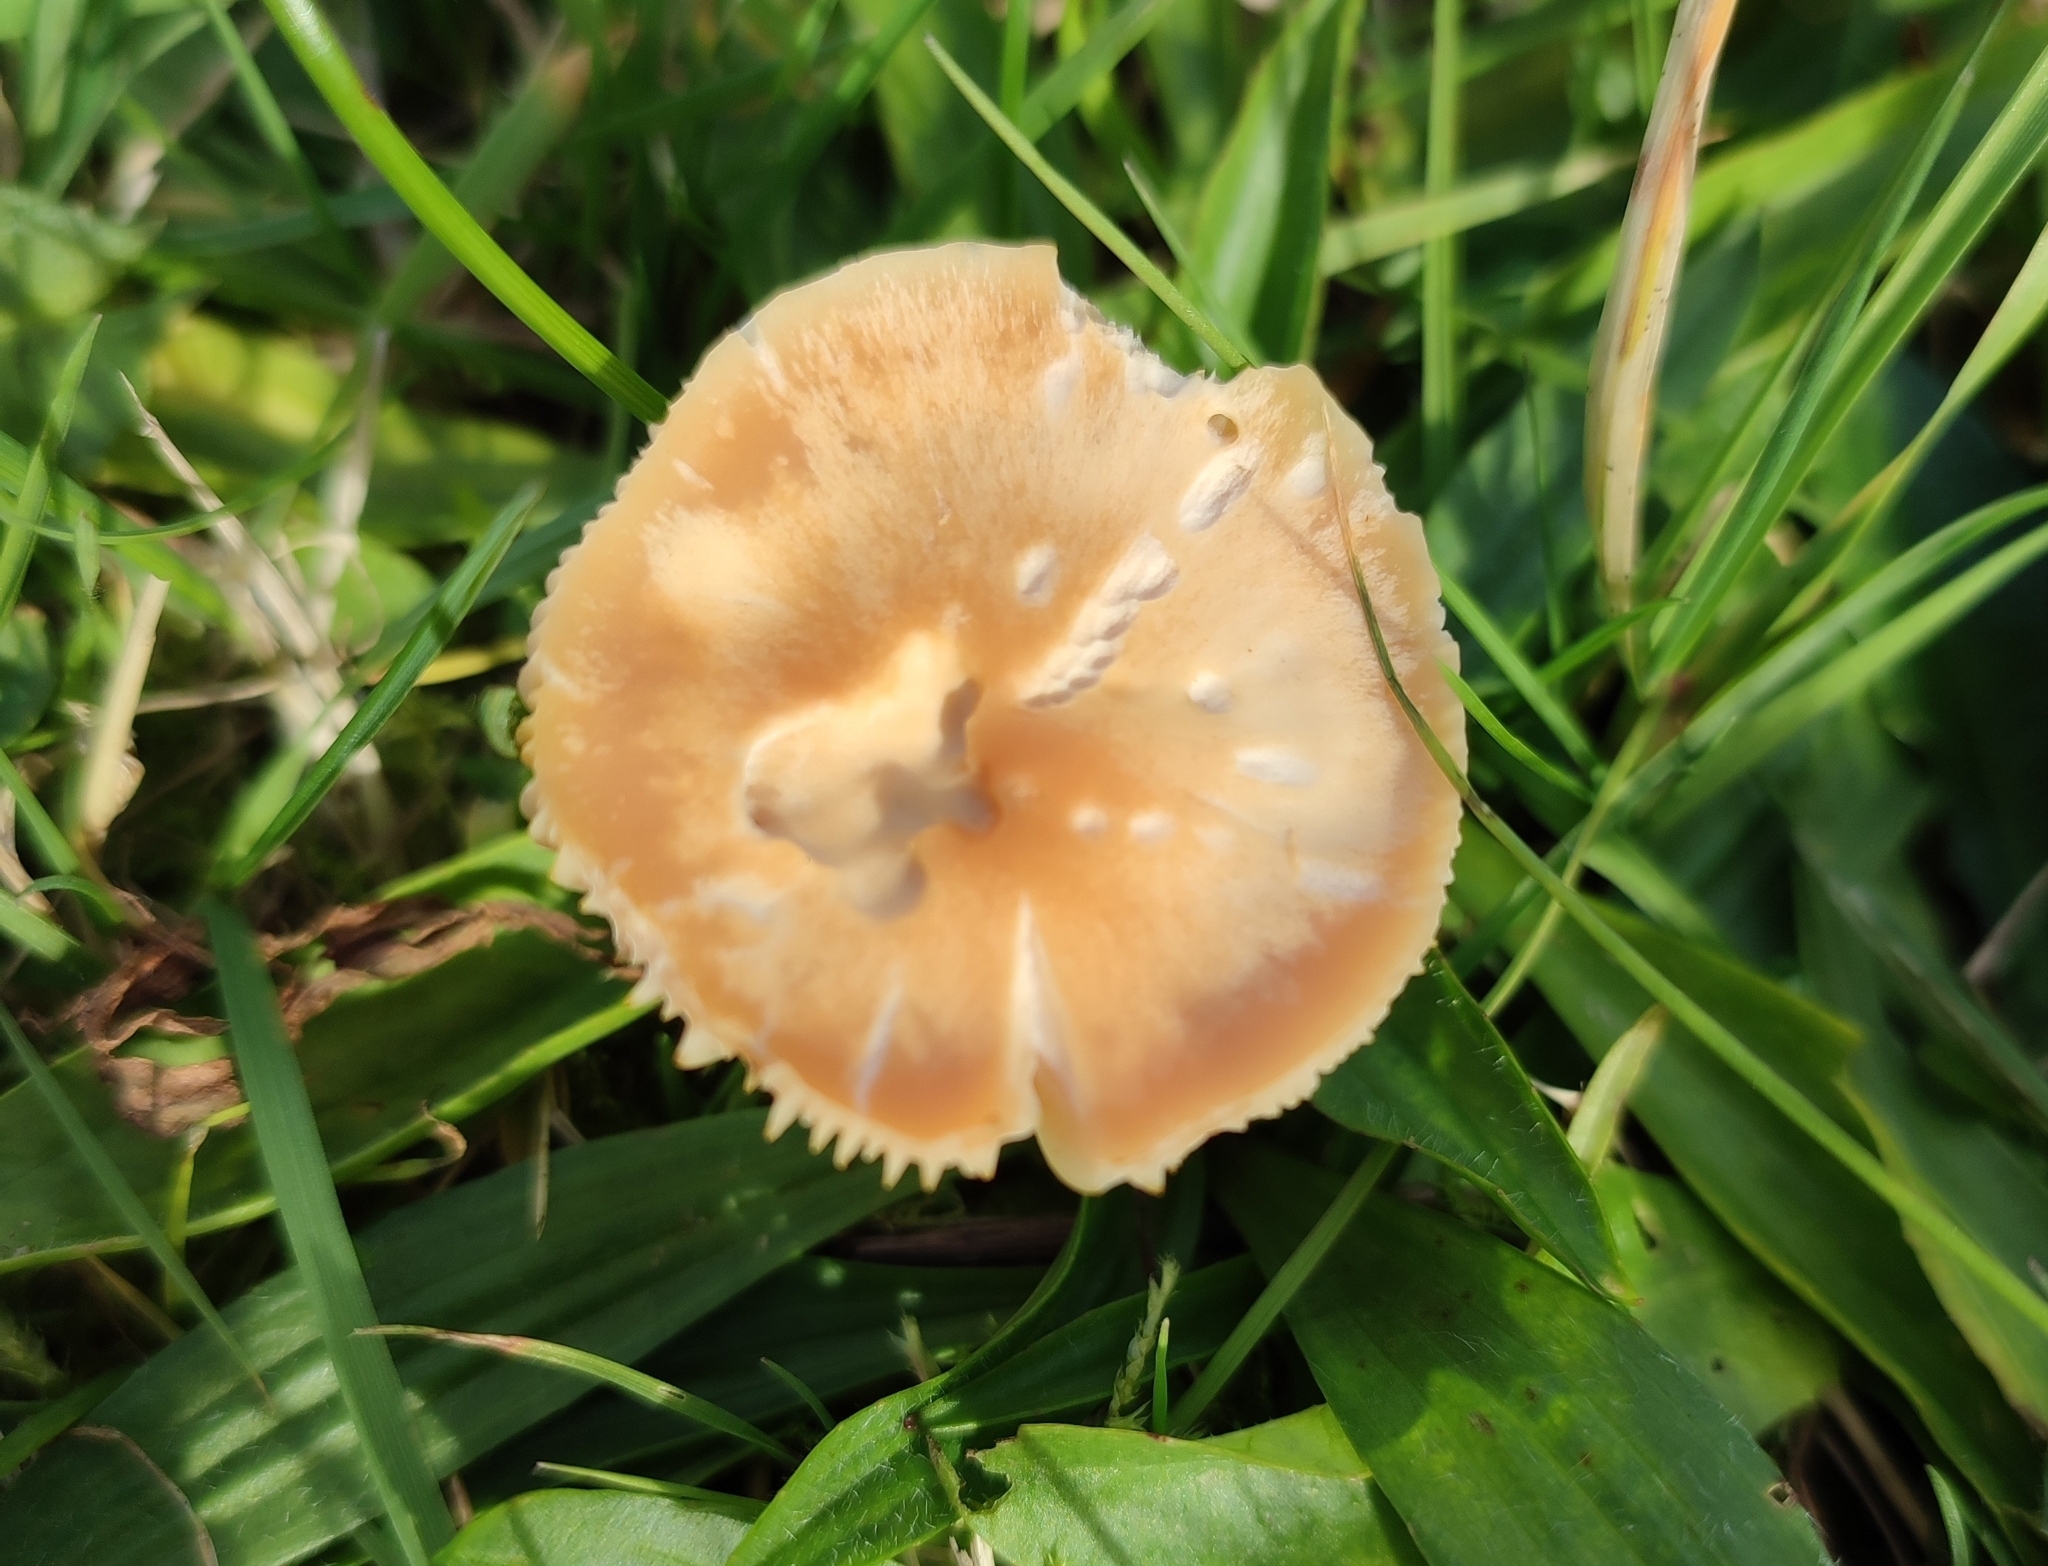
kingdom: Fungi
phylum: Basidiomycota
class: Agaricomycetes
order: Agaricales
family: Hygrophoraceae
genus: Cuphophyllus
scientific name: Cuphophyllus pratensis
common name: Meadow waxcap
